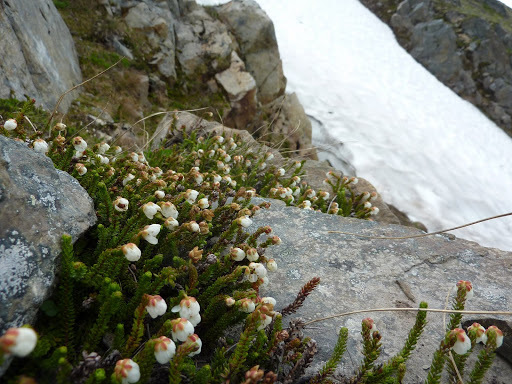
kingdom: Plantae
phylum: Tracheophyta
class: Magnoliopsida
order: Ericales
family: Ericaceae
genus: Harrimanella
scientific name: Harrimanella stelleriana
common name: Alaska bell heather
